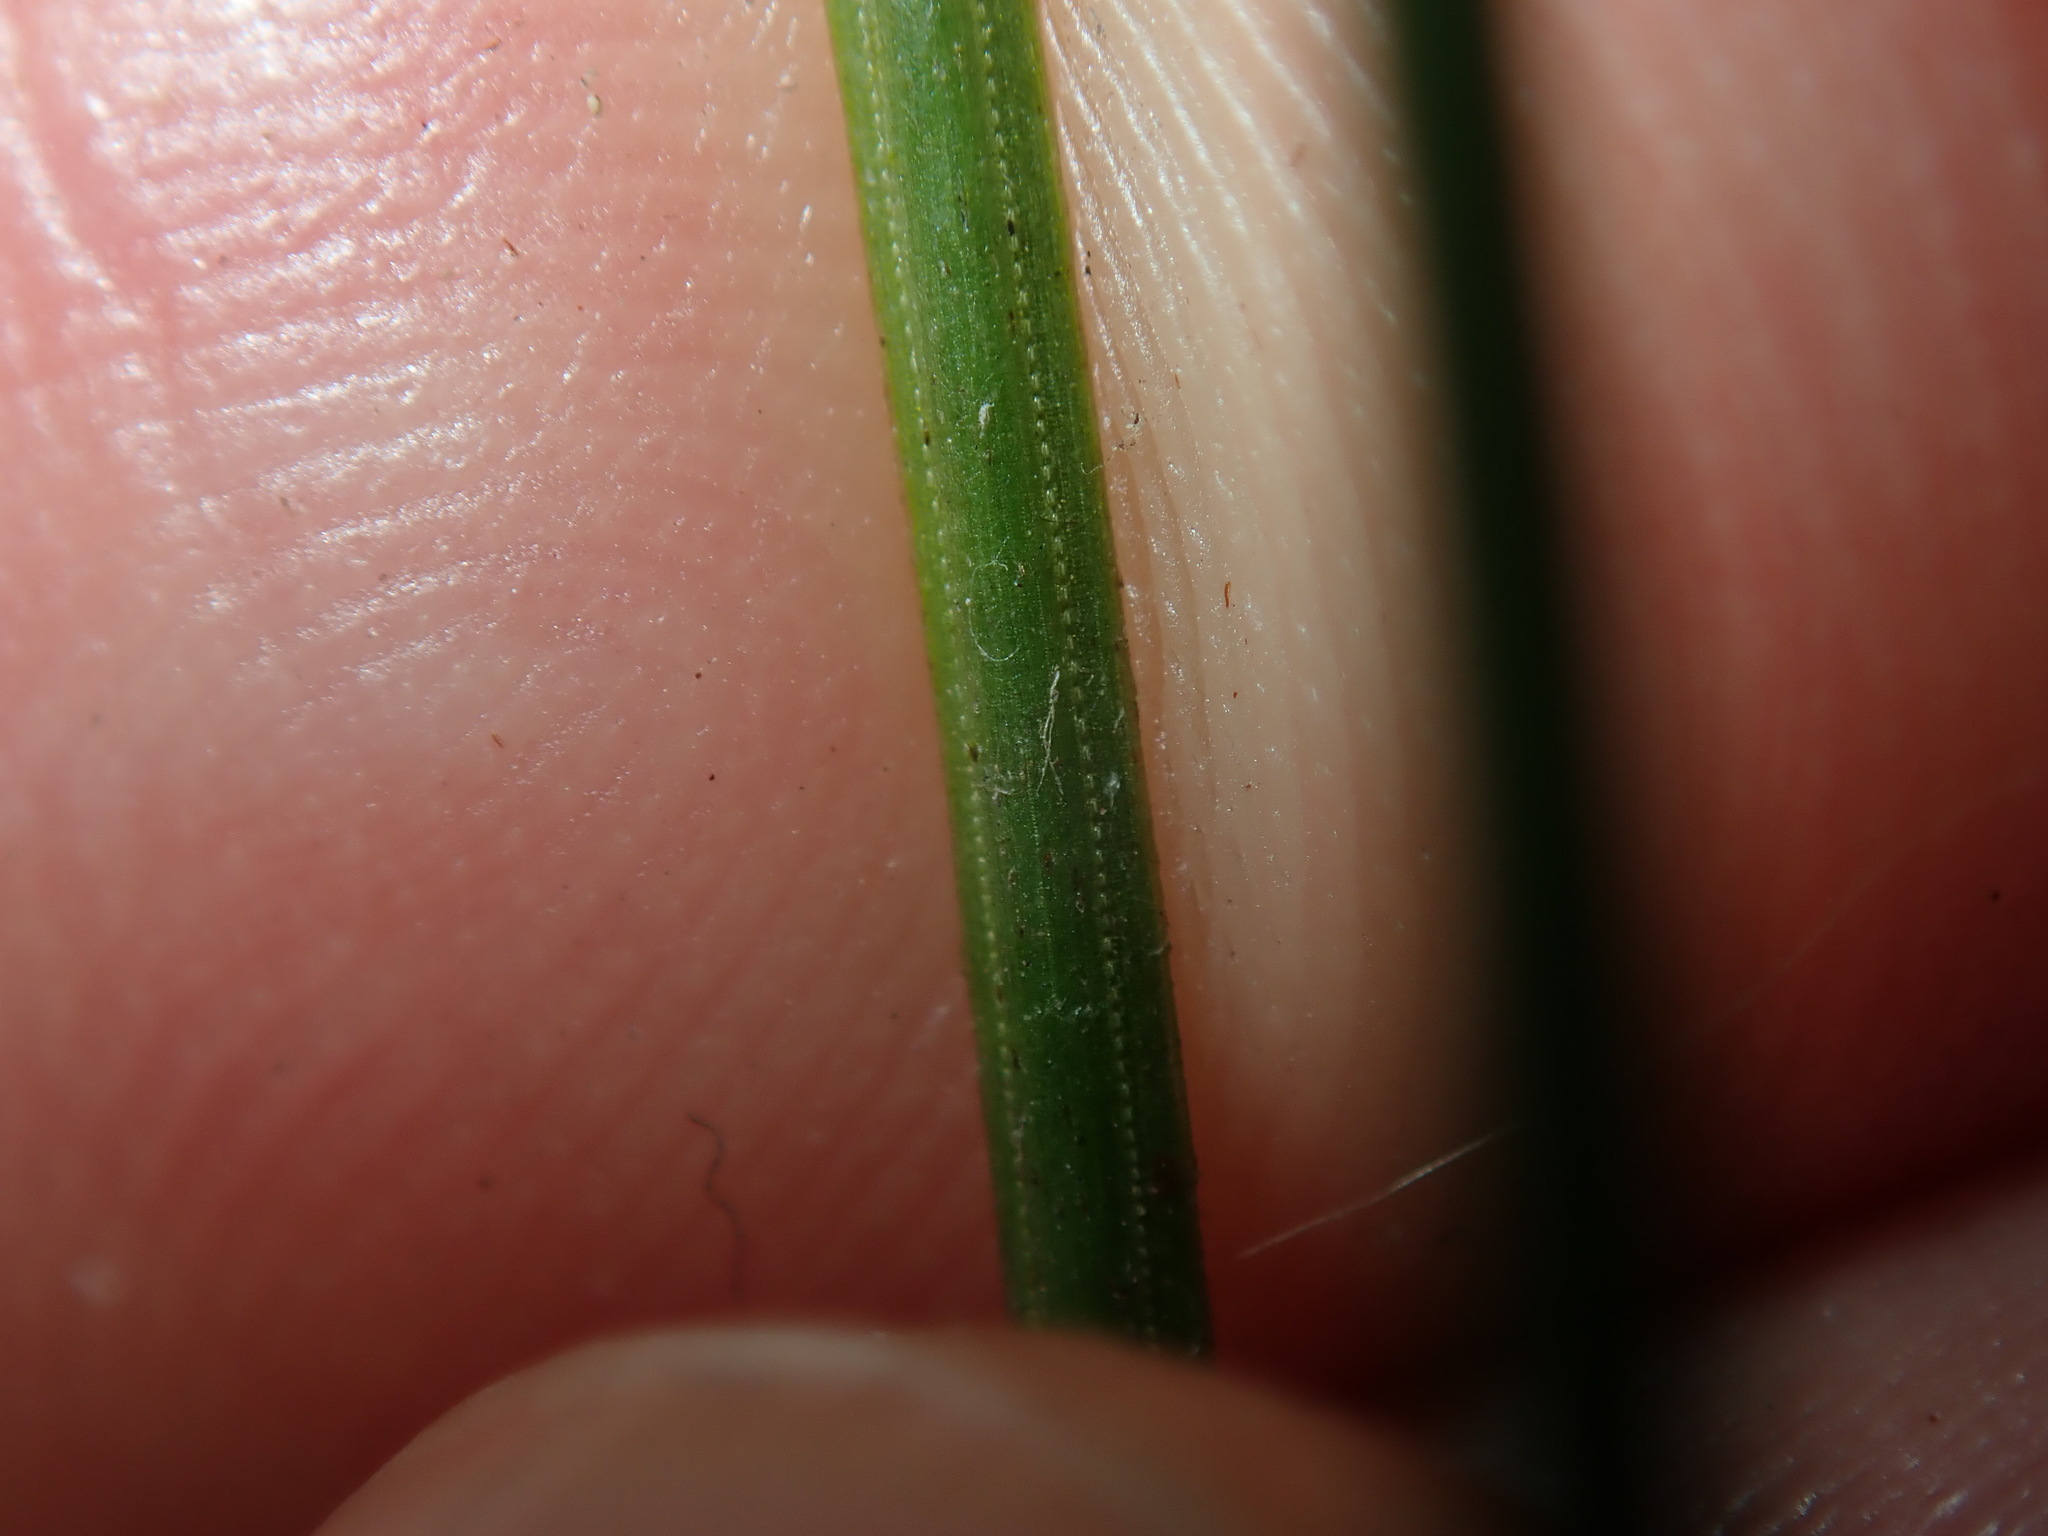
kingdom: Plantae
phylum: Tracheophyta
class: Polypodiopsida
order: Schizaeales
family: Schizaeaceae
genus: Schizaea
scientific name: Schizaea bifida
